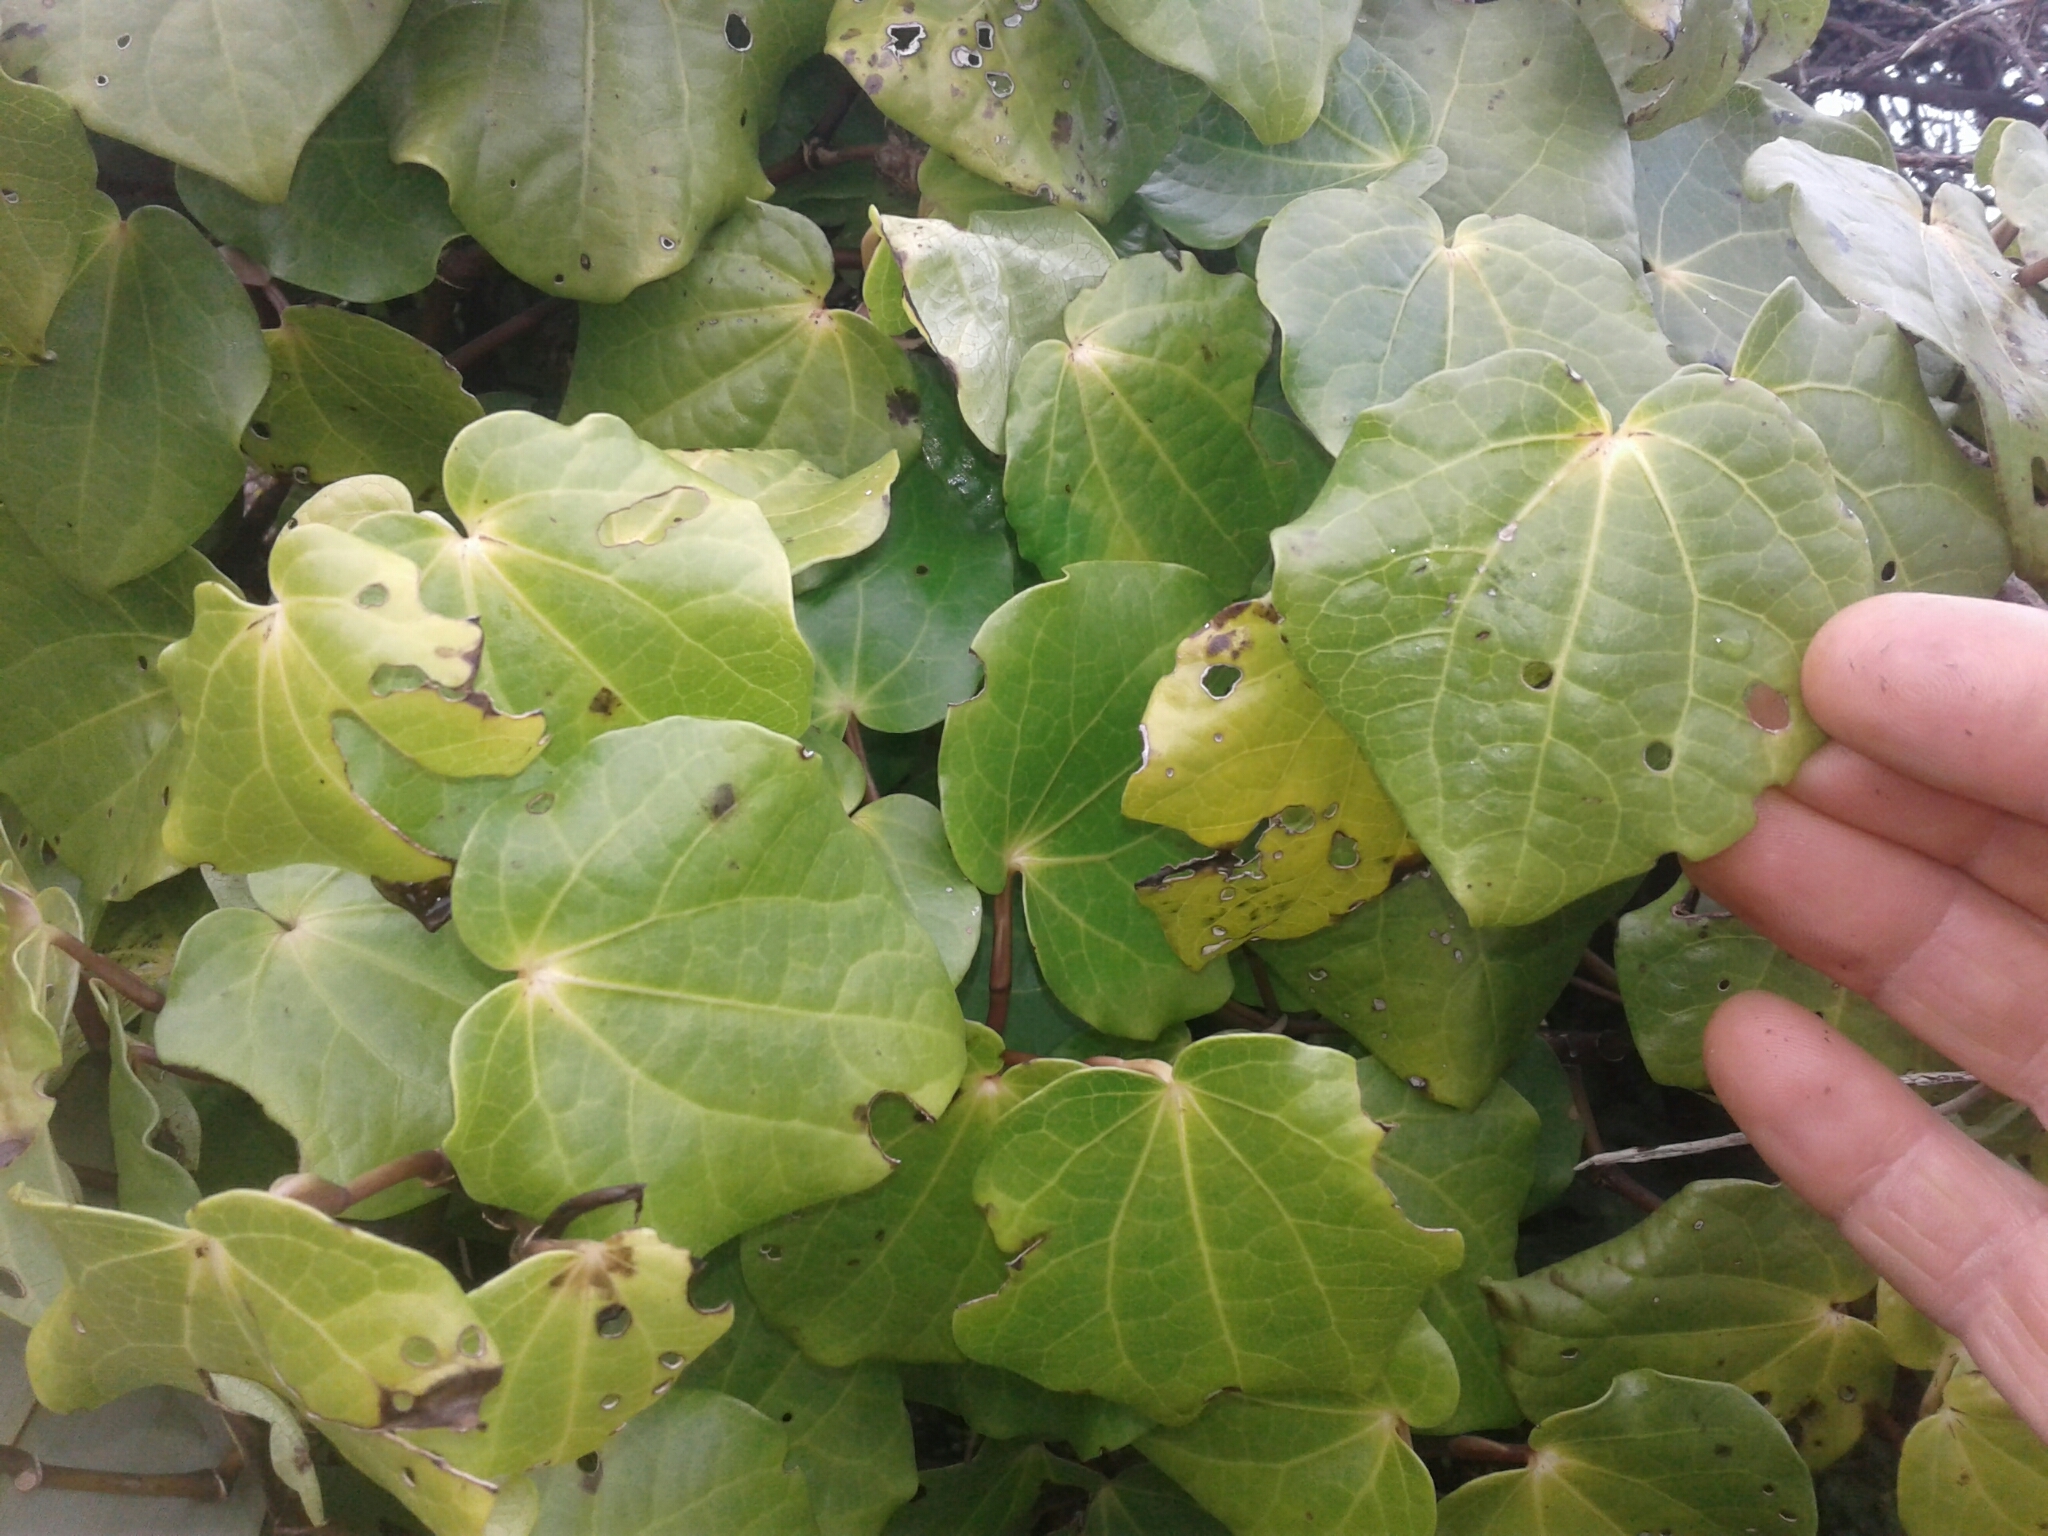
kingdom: Plantae
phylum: Tracheophyta
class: Magnoliopsida
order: Piperales
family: Piperaceae
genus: Macropiper
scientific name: Macropiper excelsum
